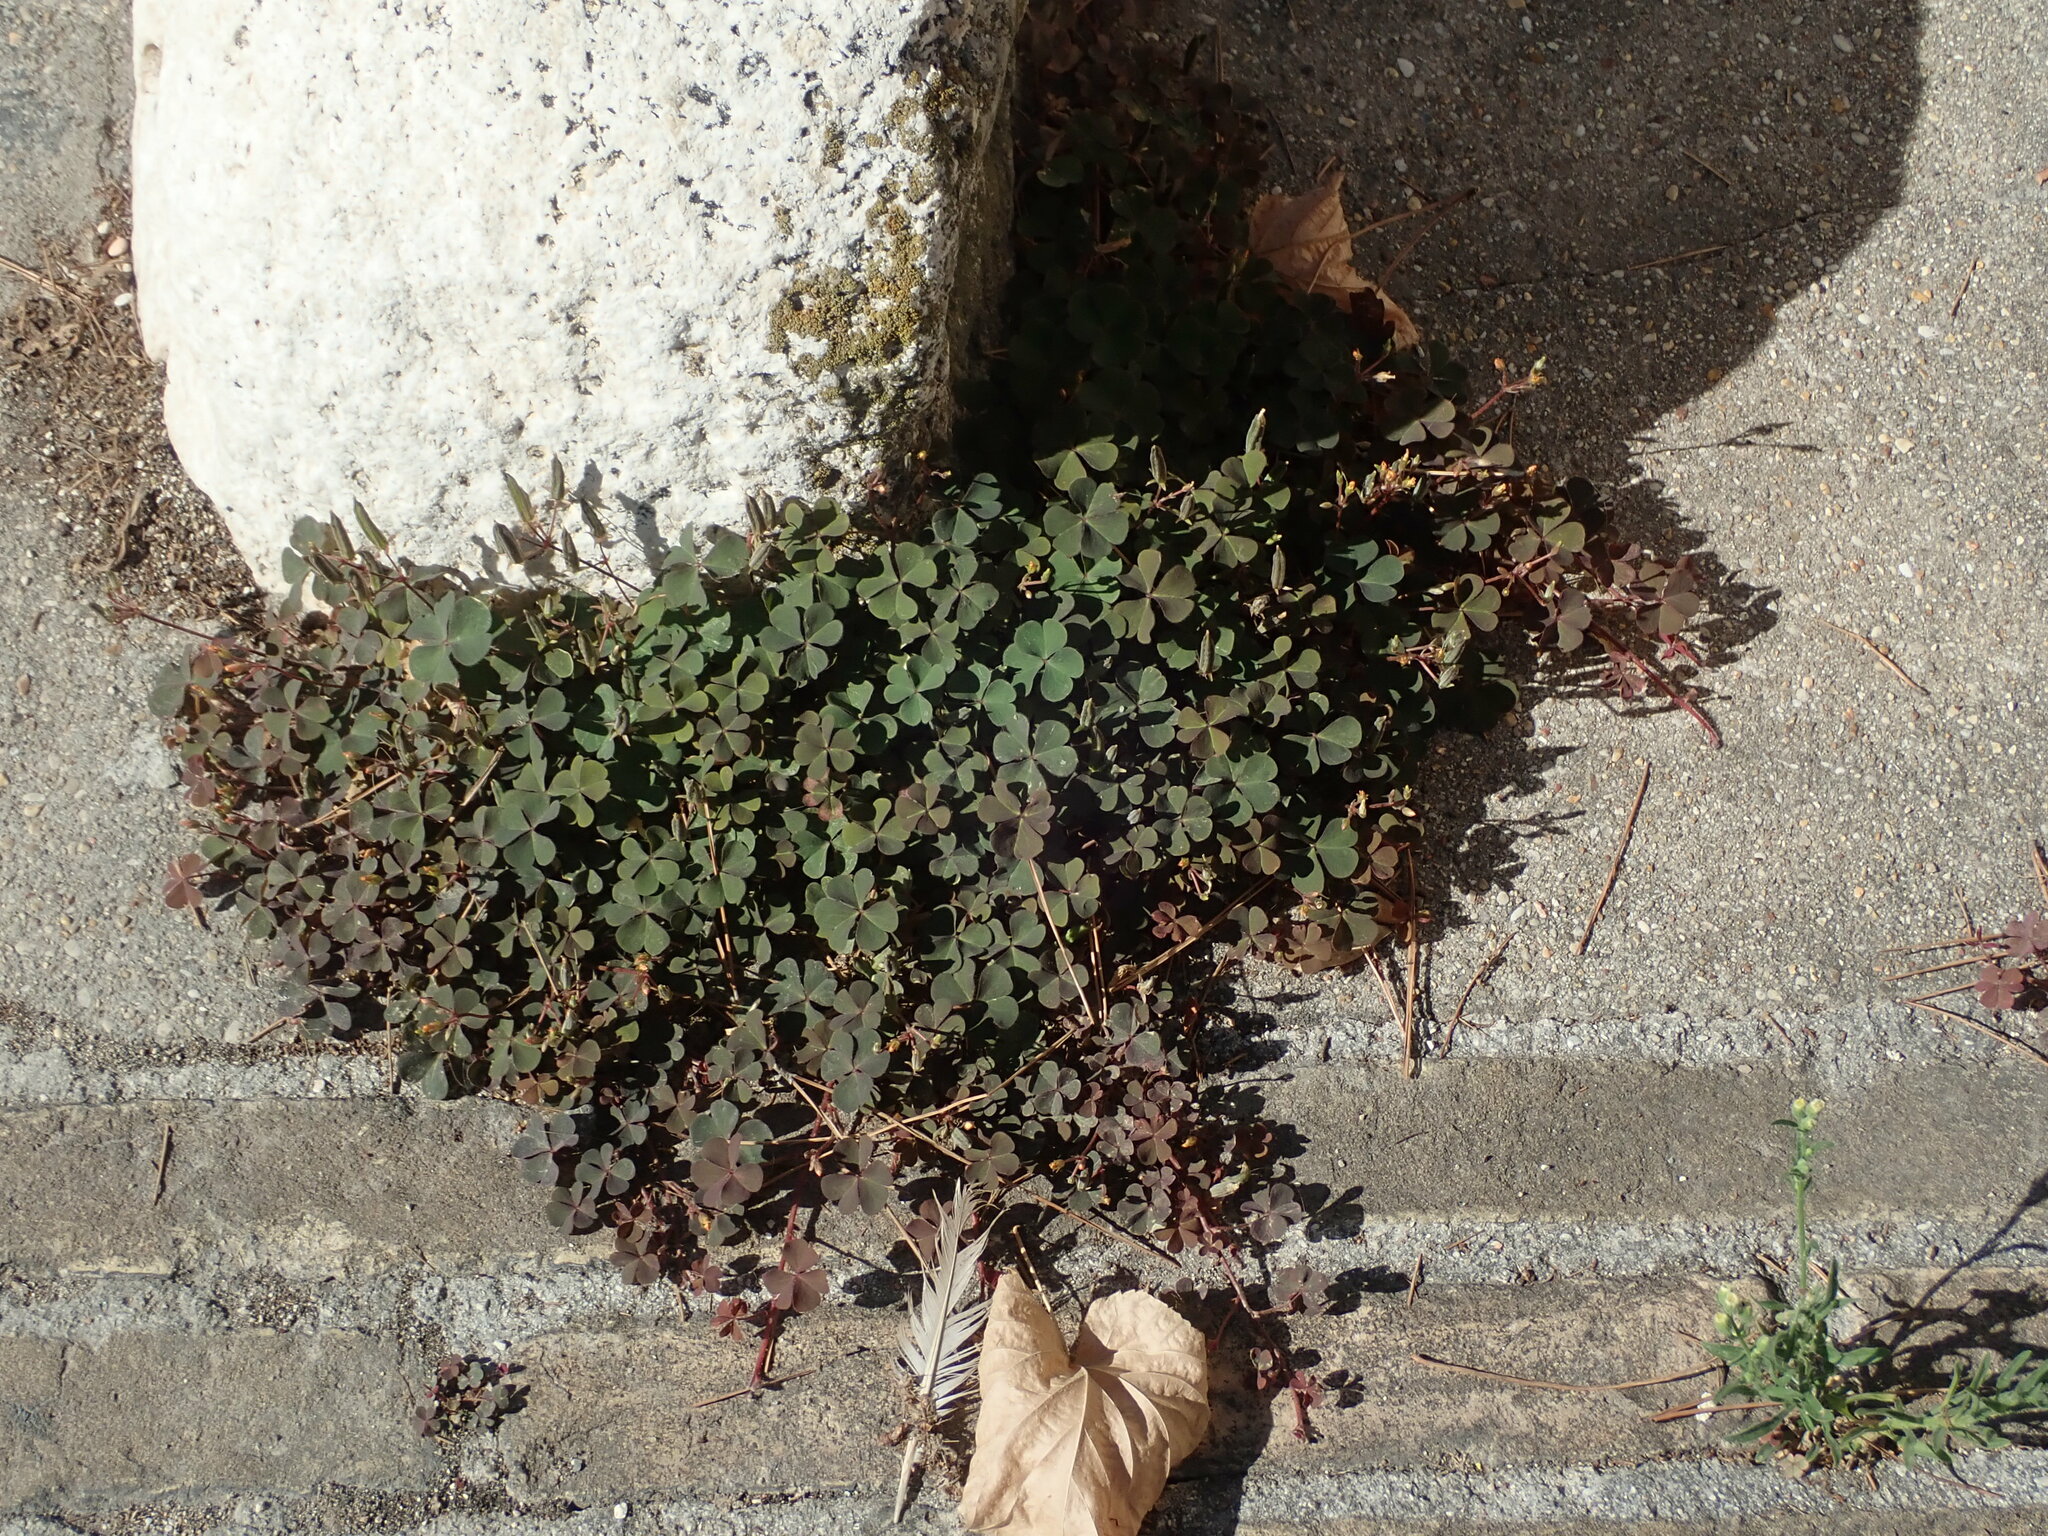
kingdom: Plantae
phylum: Tracheophyta
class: Magnoliopsida
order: Oxalidales
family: Oxalidaceae
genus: Oxalis
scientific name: Oxalis corniculata
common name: Procumbent yellow-sorrel
